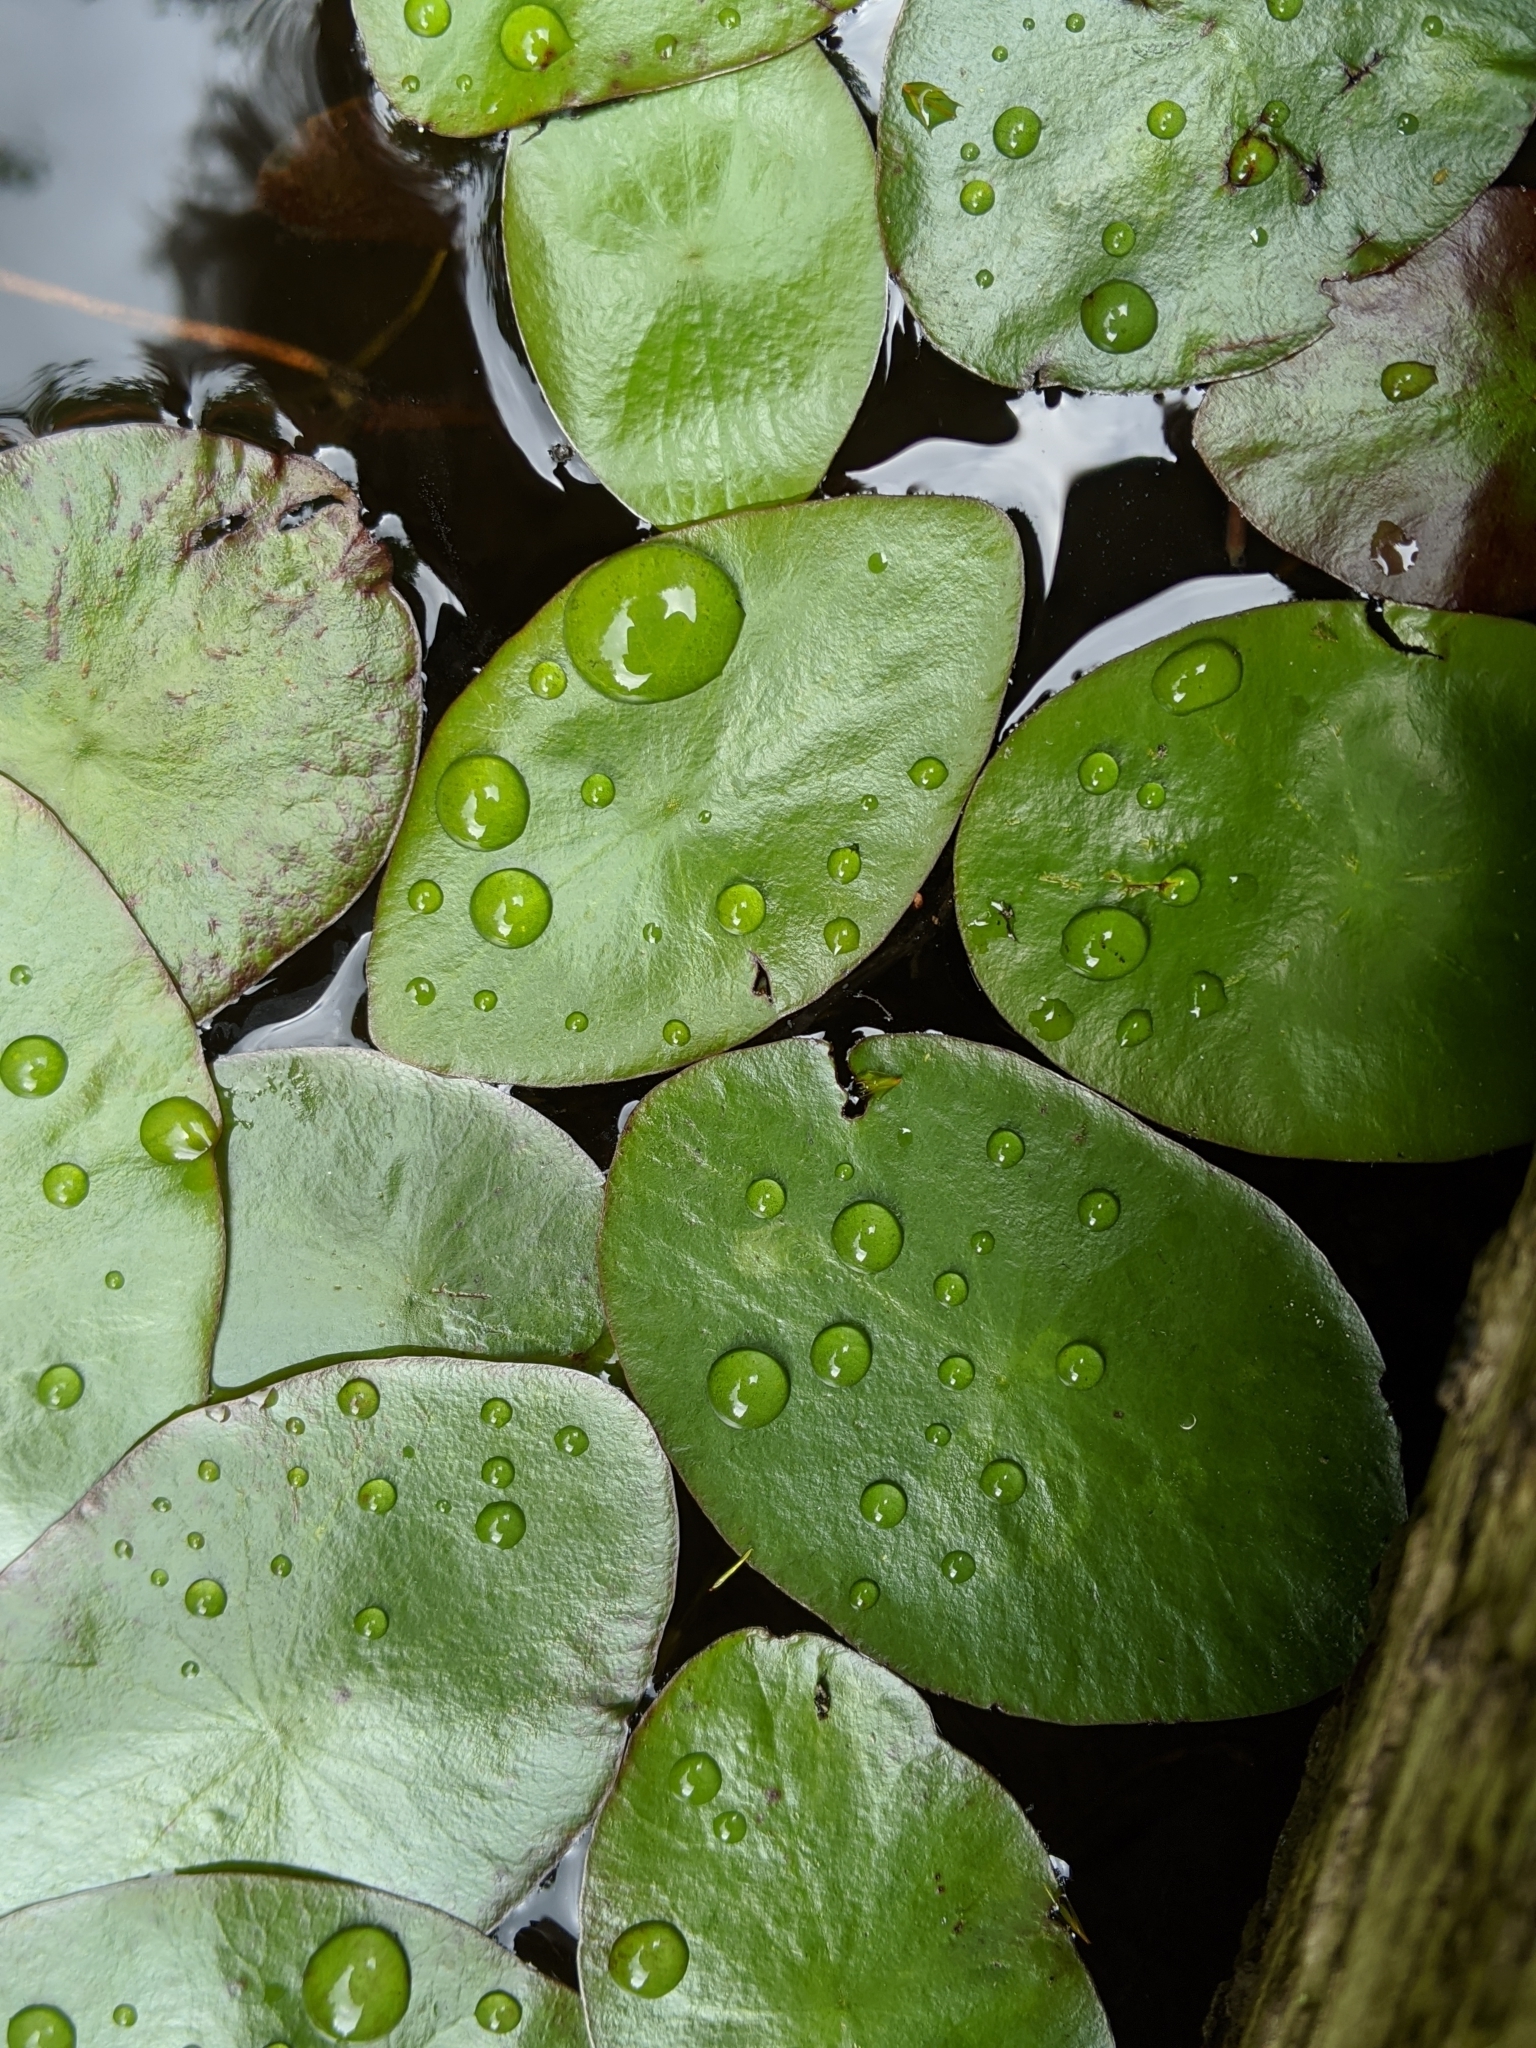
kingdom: Plantae
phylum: Tracheophyta
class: Magnoliopsida
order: Nymphaeales
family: Cabombaceae
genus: Brasenia
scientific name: Brasenia schreberi
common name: Water-shield
